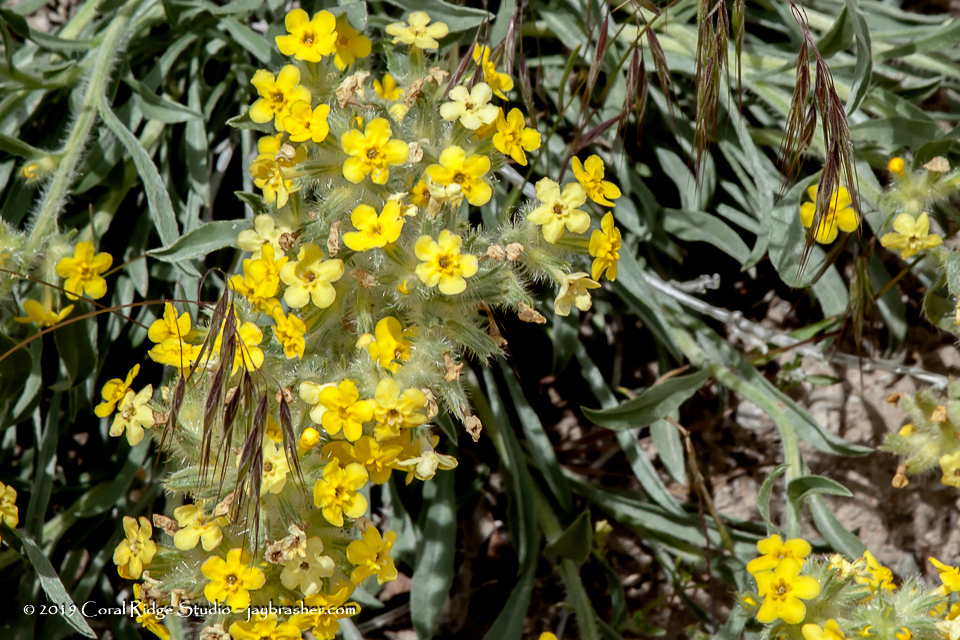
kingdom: Plantae
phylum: Tracheophyta
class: Magnoliopsida
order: Boraginales
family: Boraginaceae
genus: Oreocarya
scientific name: Oreocarya flava
